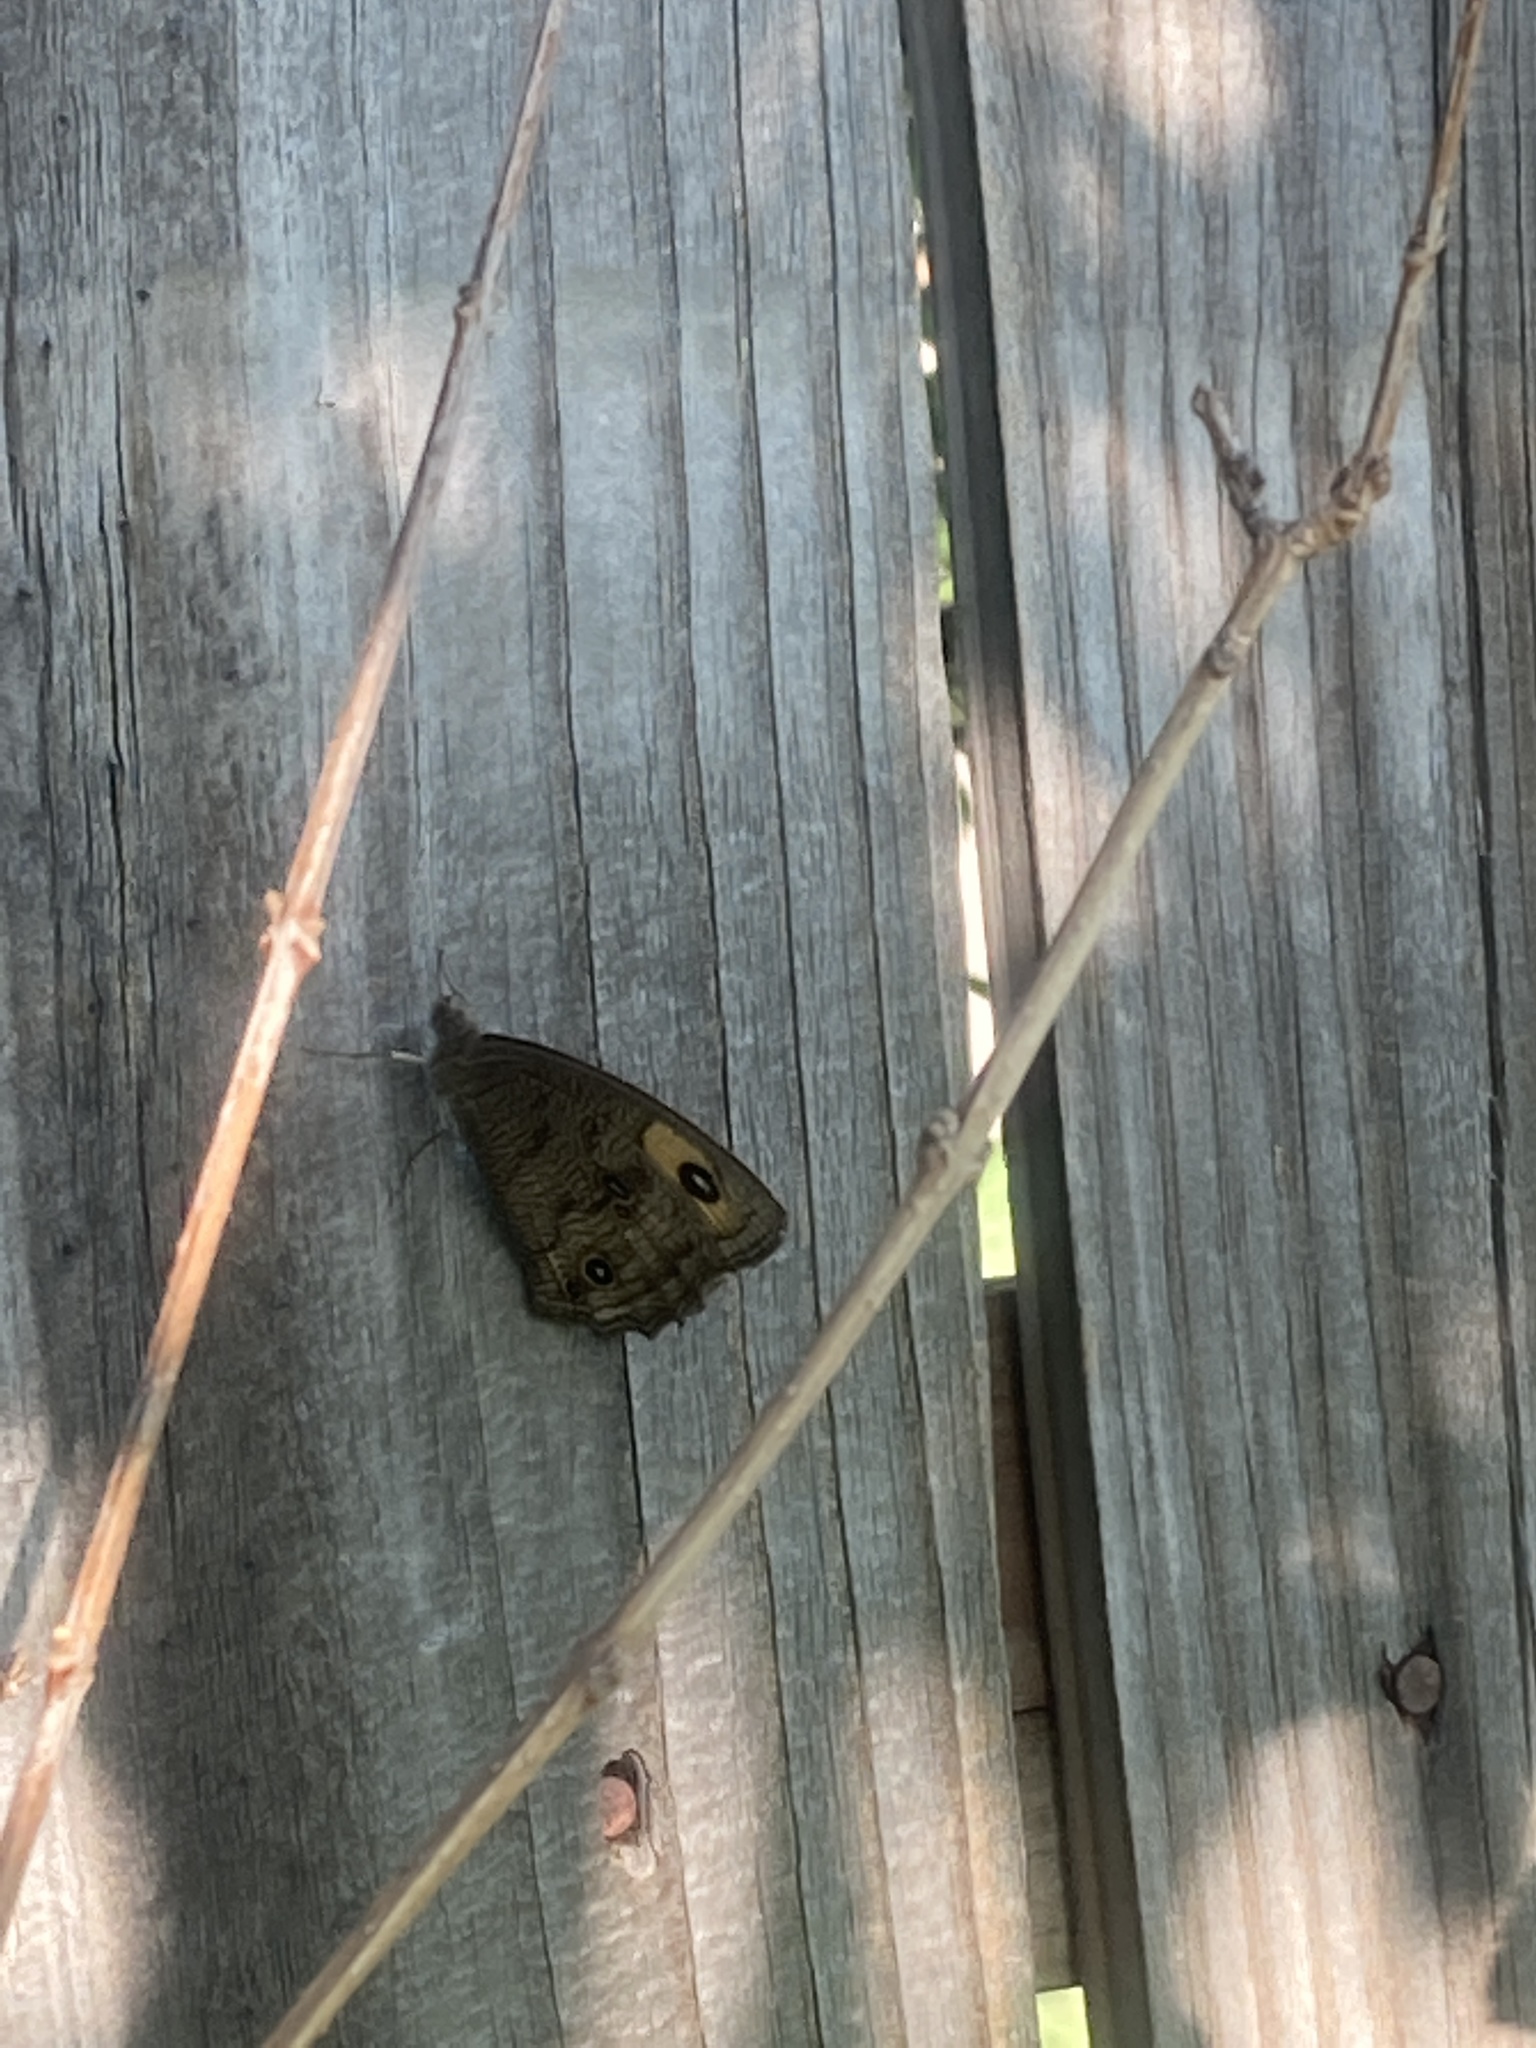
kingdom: Animalia
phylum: Arthropoda
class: Insecta
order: Lepidoptera
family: Nymphalidae
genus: Cercyonis
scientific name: Cercyonis pegala
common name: Common wood-nymph
